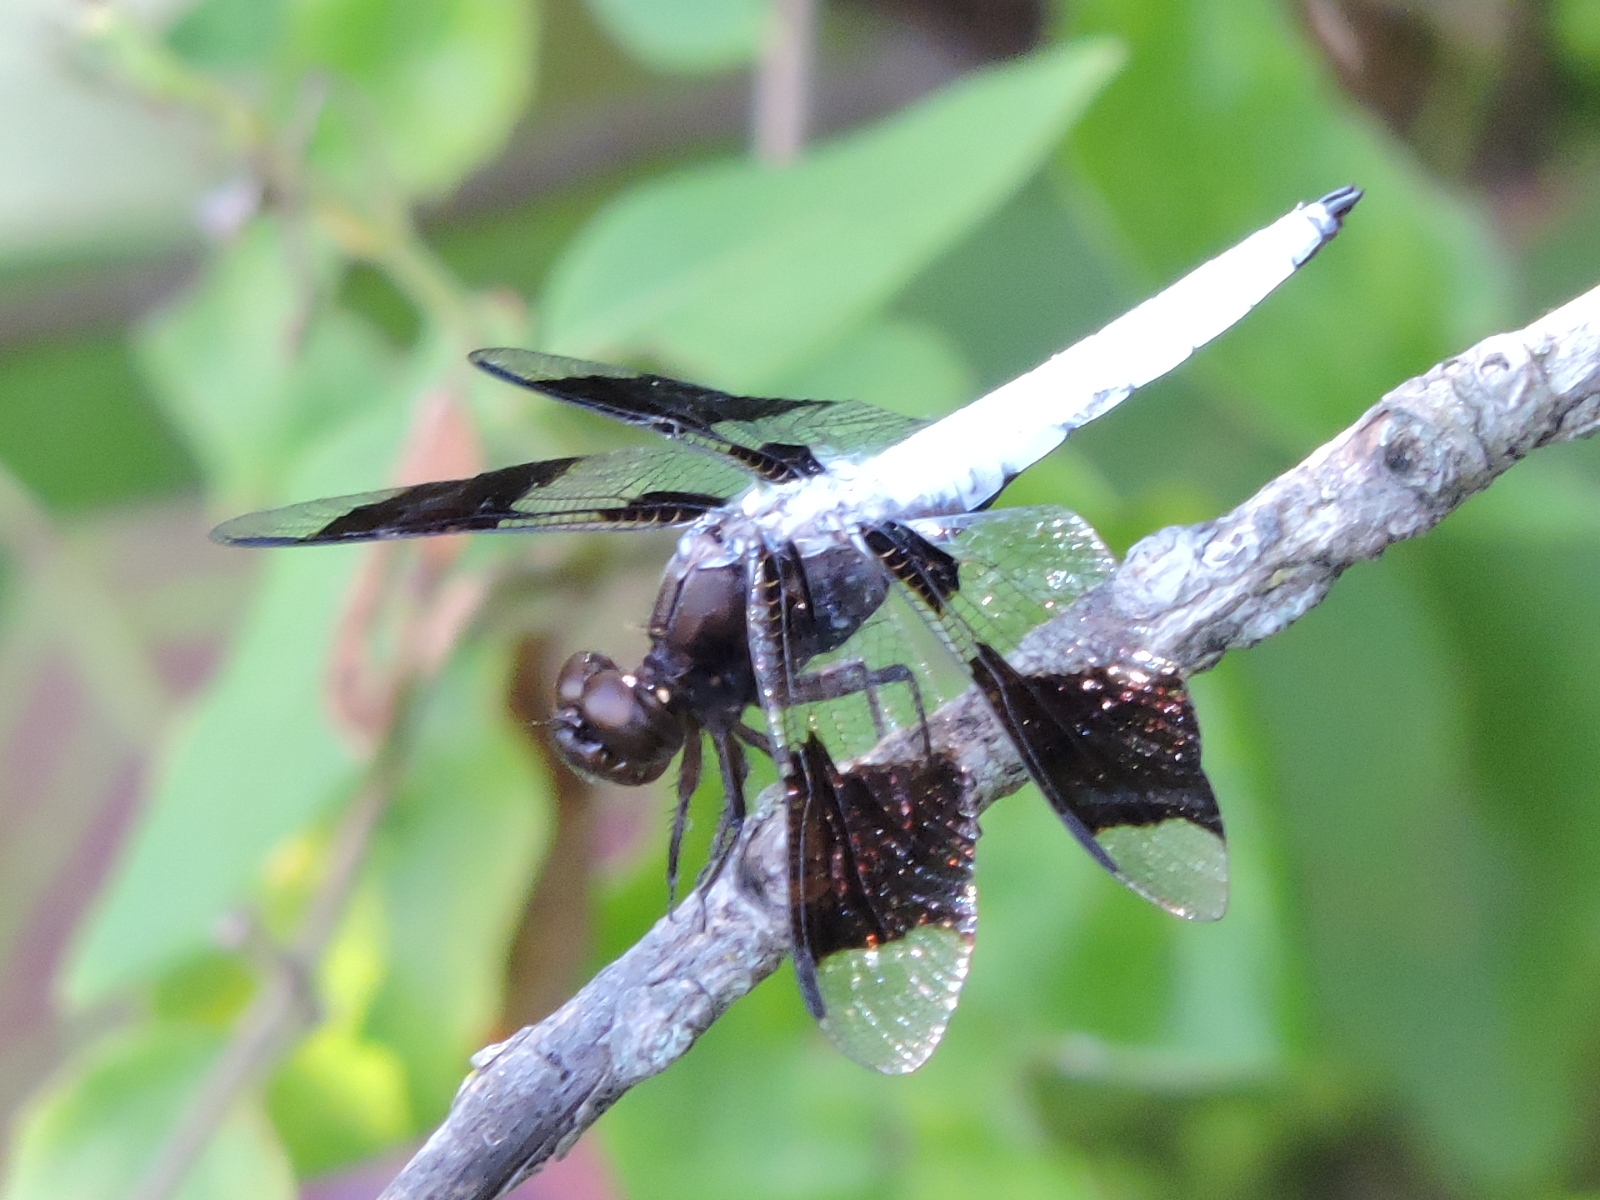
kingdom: Animalia
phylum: Arthropoda
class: Insecta
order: Odonata
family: Libellulidae
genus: Plathemis
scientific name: Plathemis lydia
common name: Common whitetail
